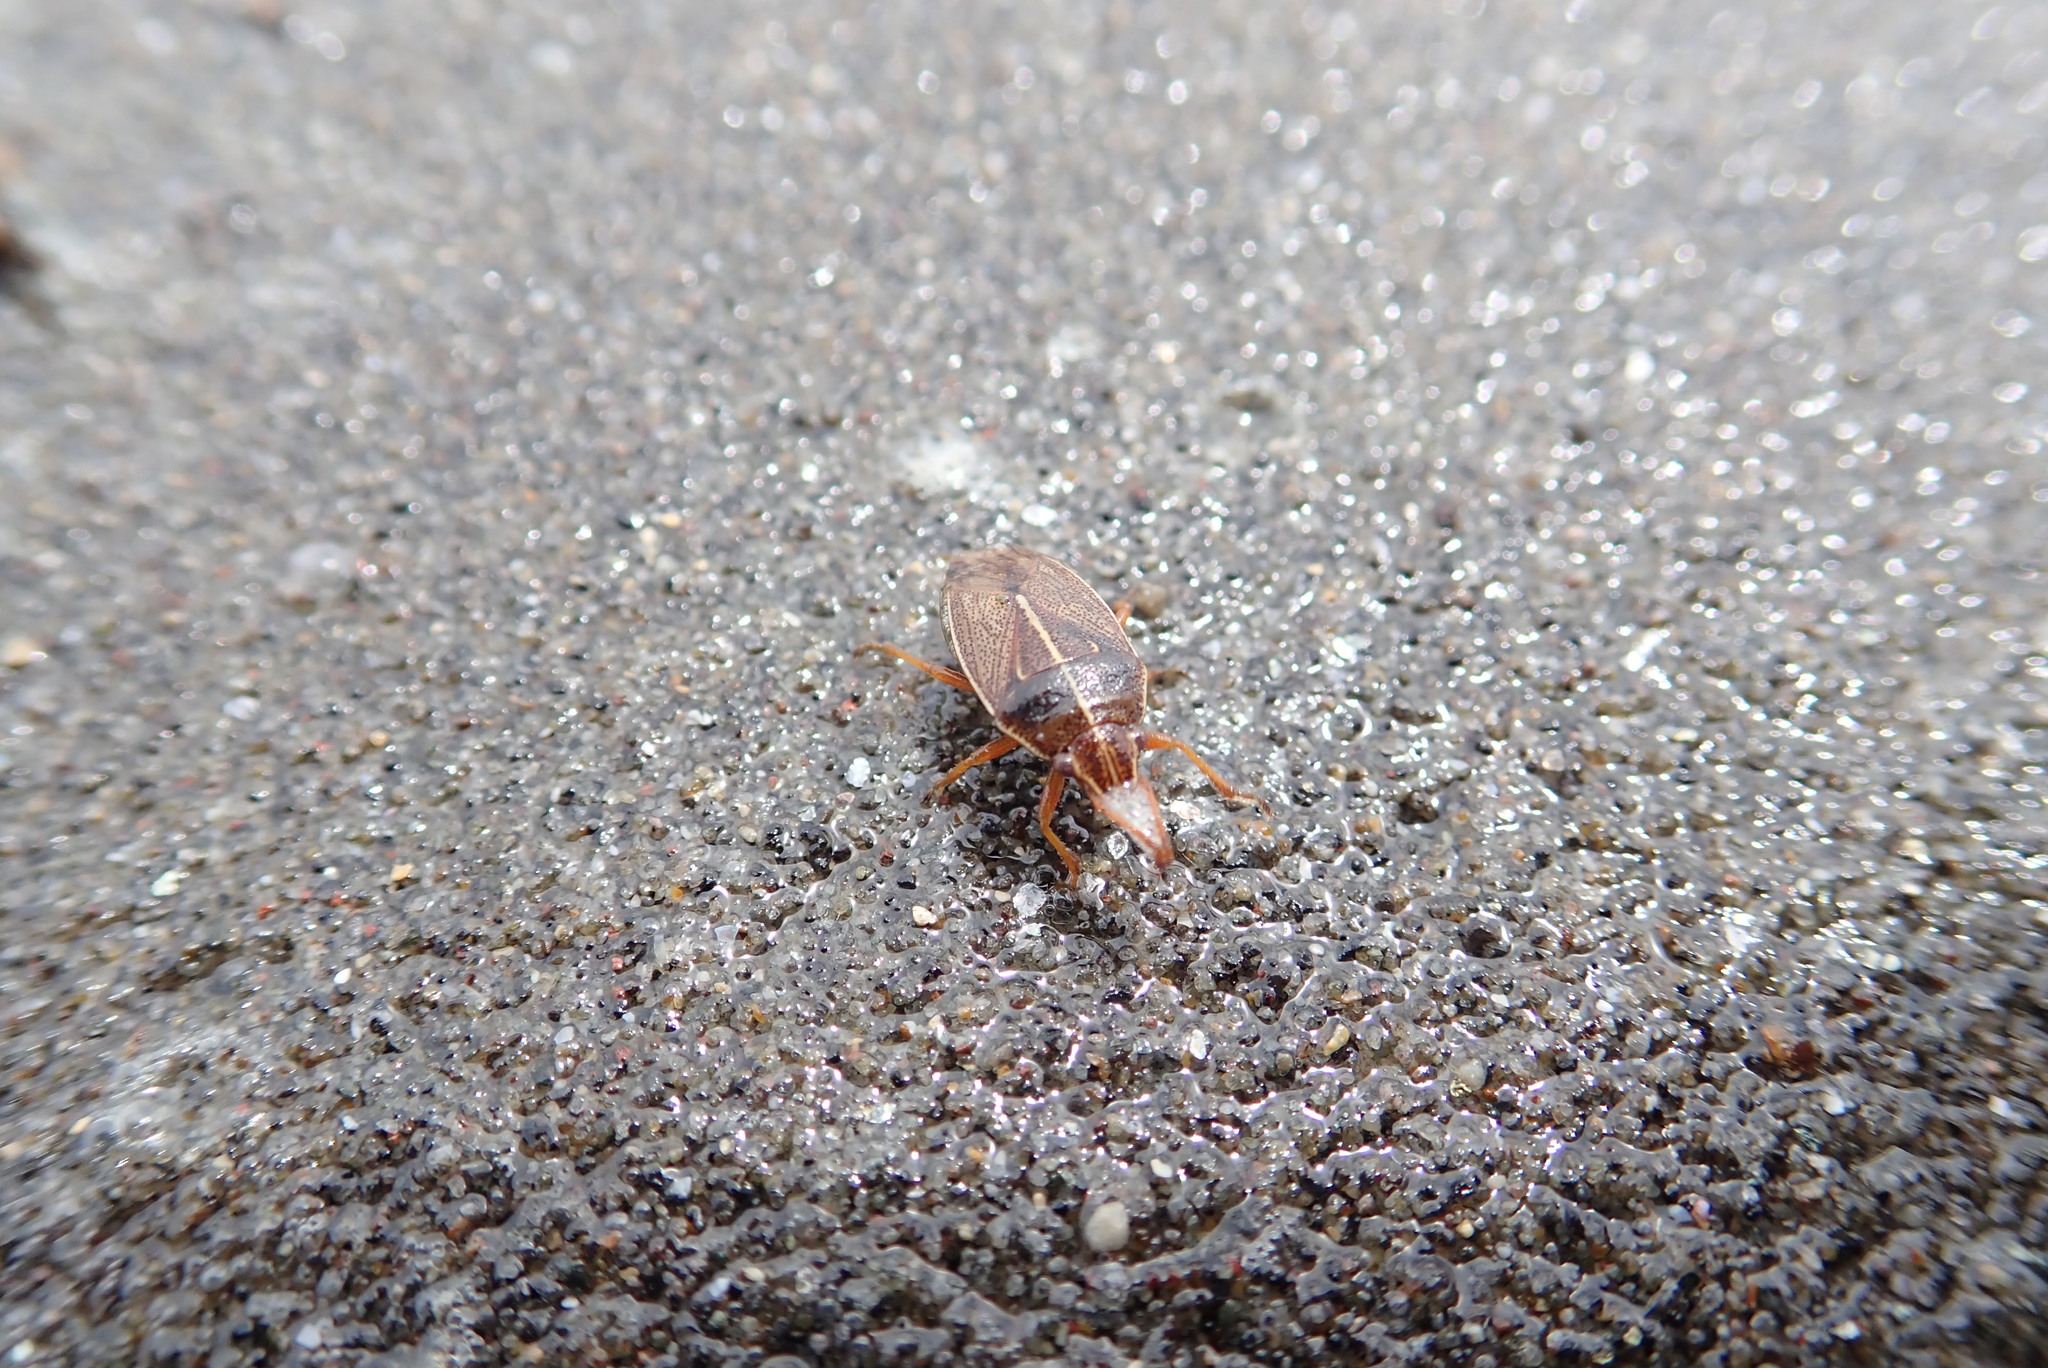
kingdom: Animalia
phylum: Arthropoda
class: Insecta
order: Hemiptera
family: Acanthosomatidae
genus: Rhopalimorpha
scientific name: Rhopalimorpha lineolaris
